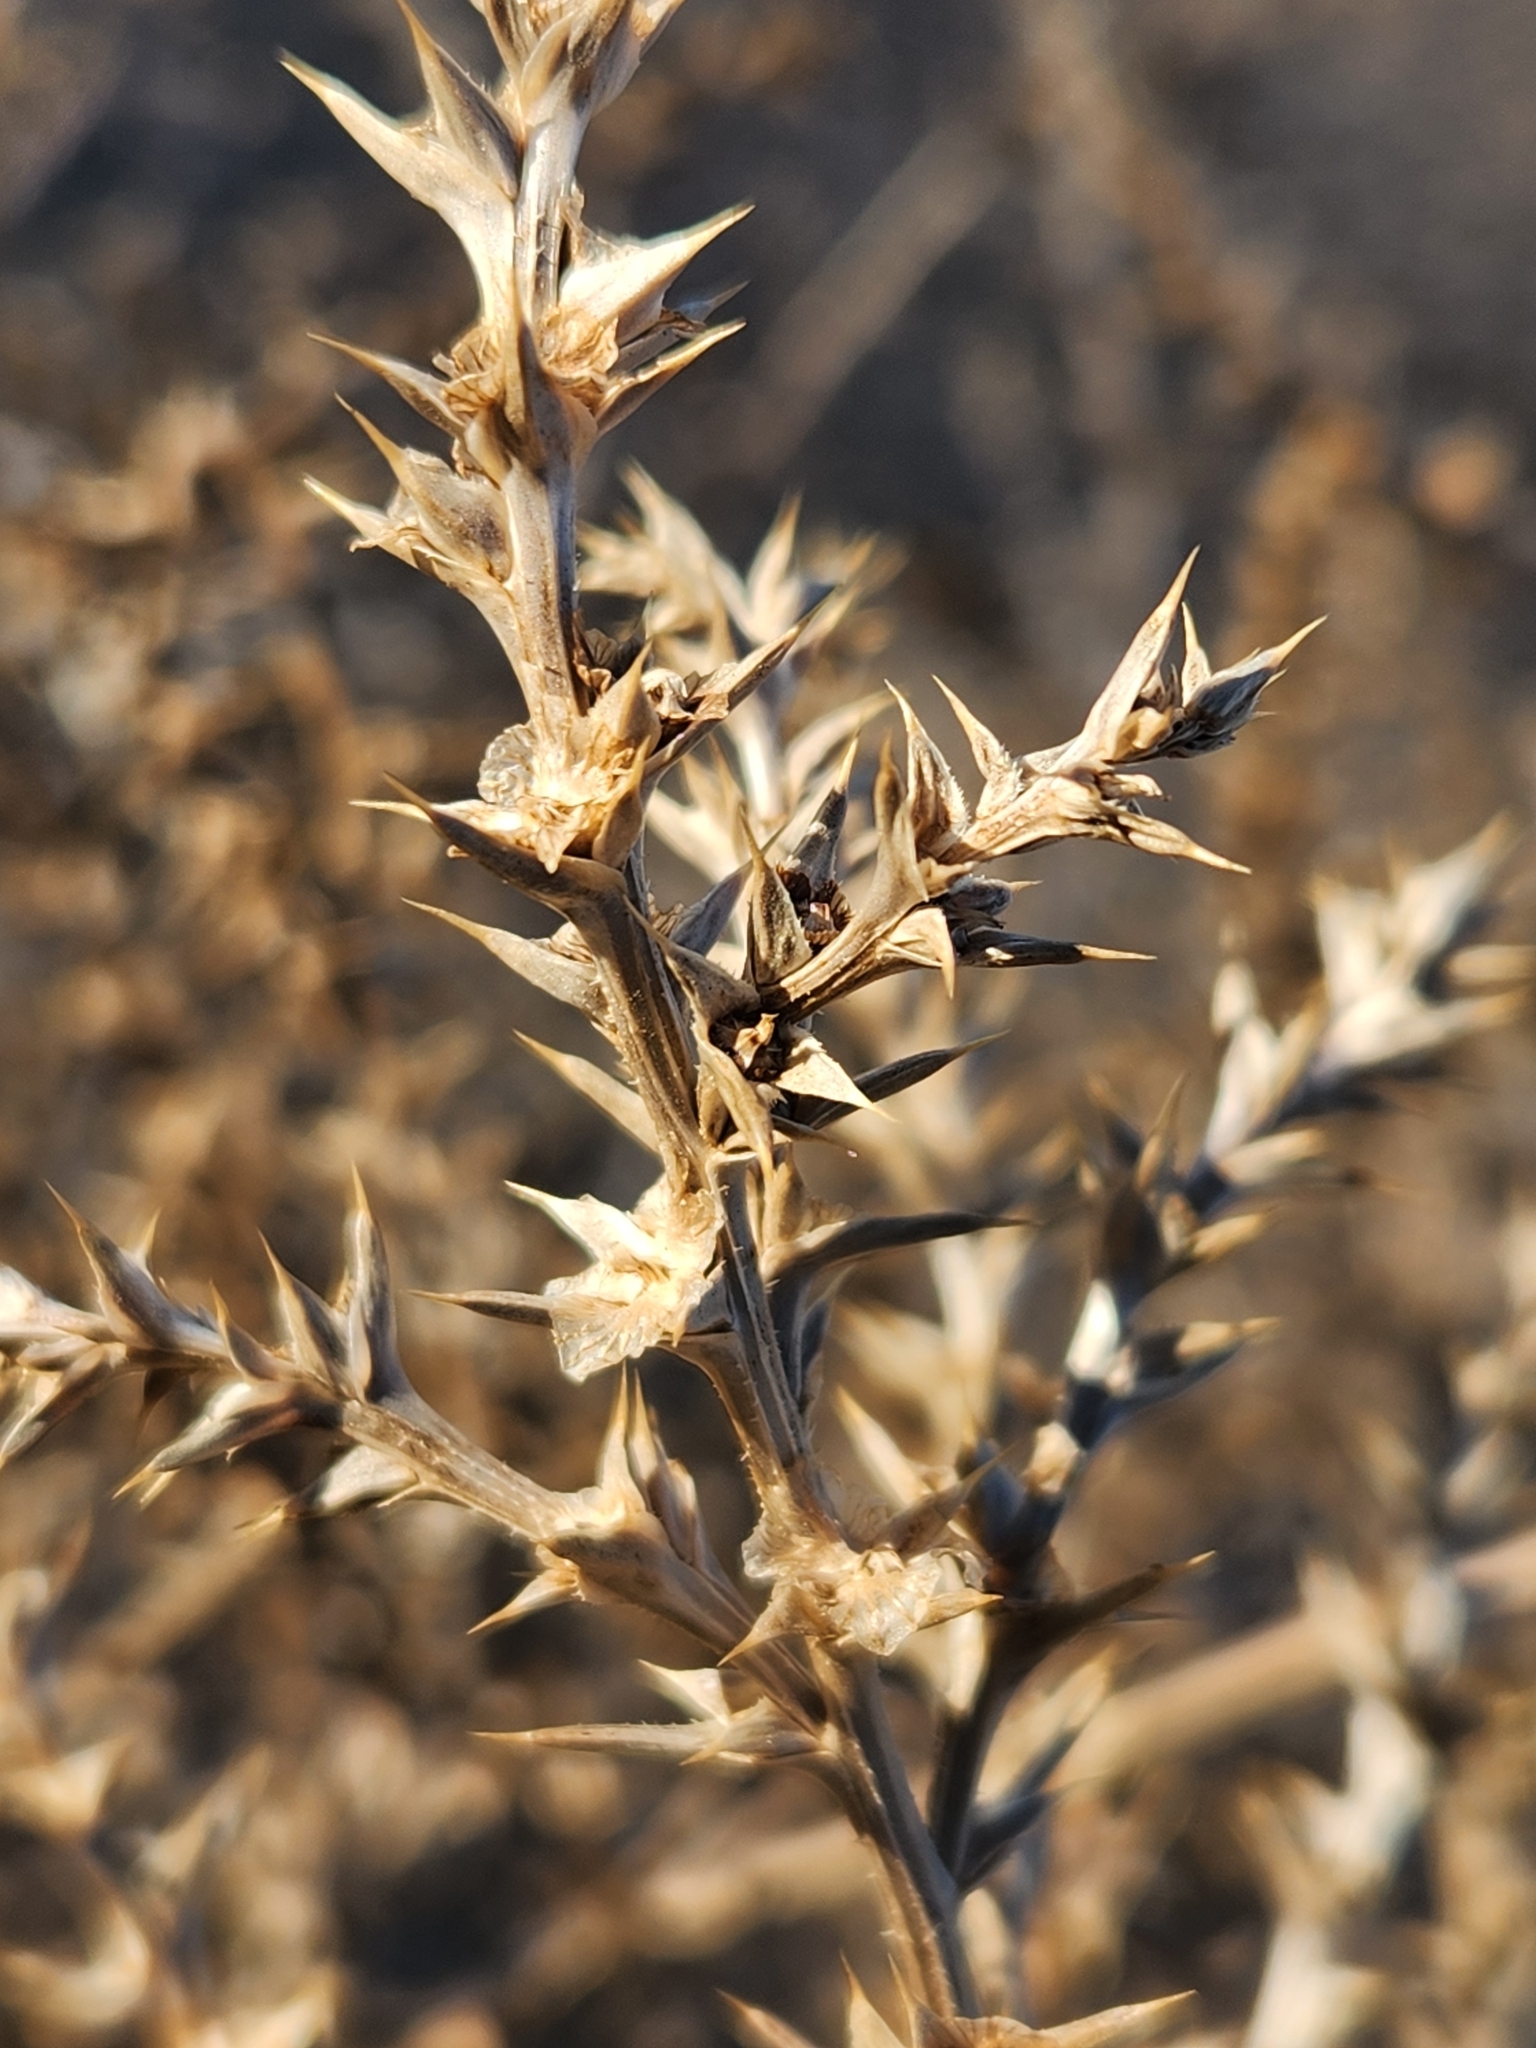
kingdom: Plantae
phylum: Tracheophyta
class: Magnoliopsida
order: Caryophyllales
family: Amaranthaceae
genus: Salsola
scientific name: Salsola tragus
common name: Prickly russian thistle
